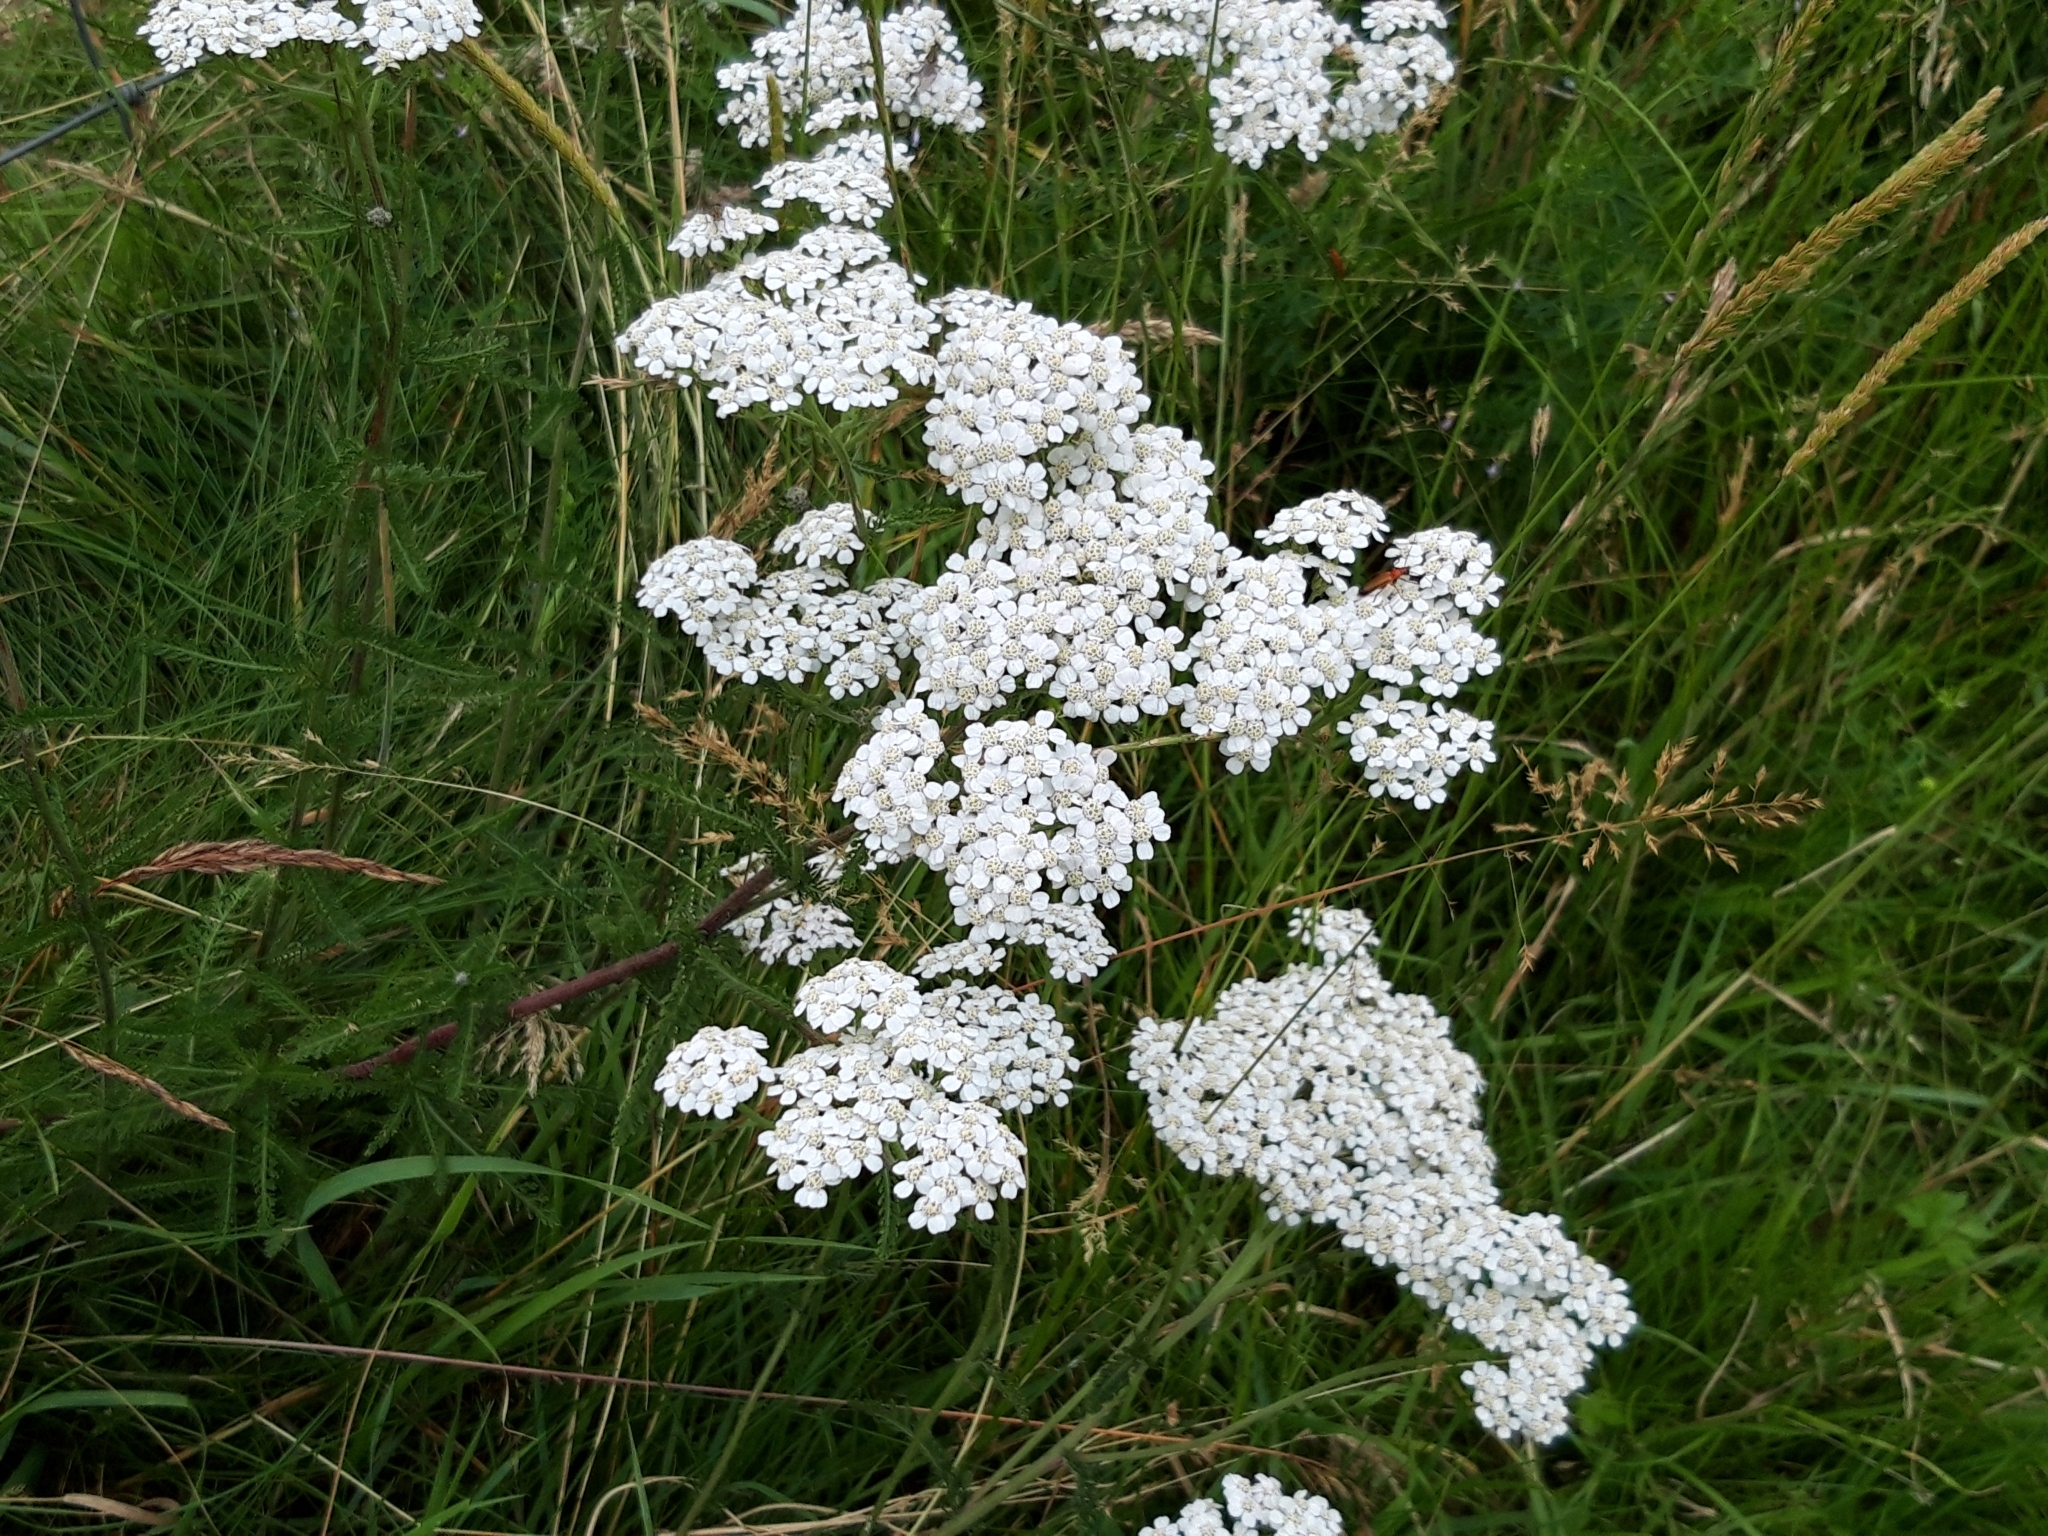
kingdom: Plantae
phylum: Tracheophyta
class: Magnoliopsida
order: Asterales
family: Asteraceae
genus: Achillea
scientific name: Achillea millefolium
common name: Yarrow
